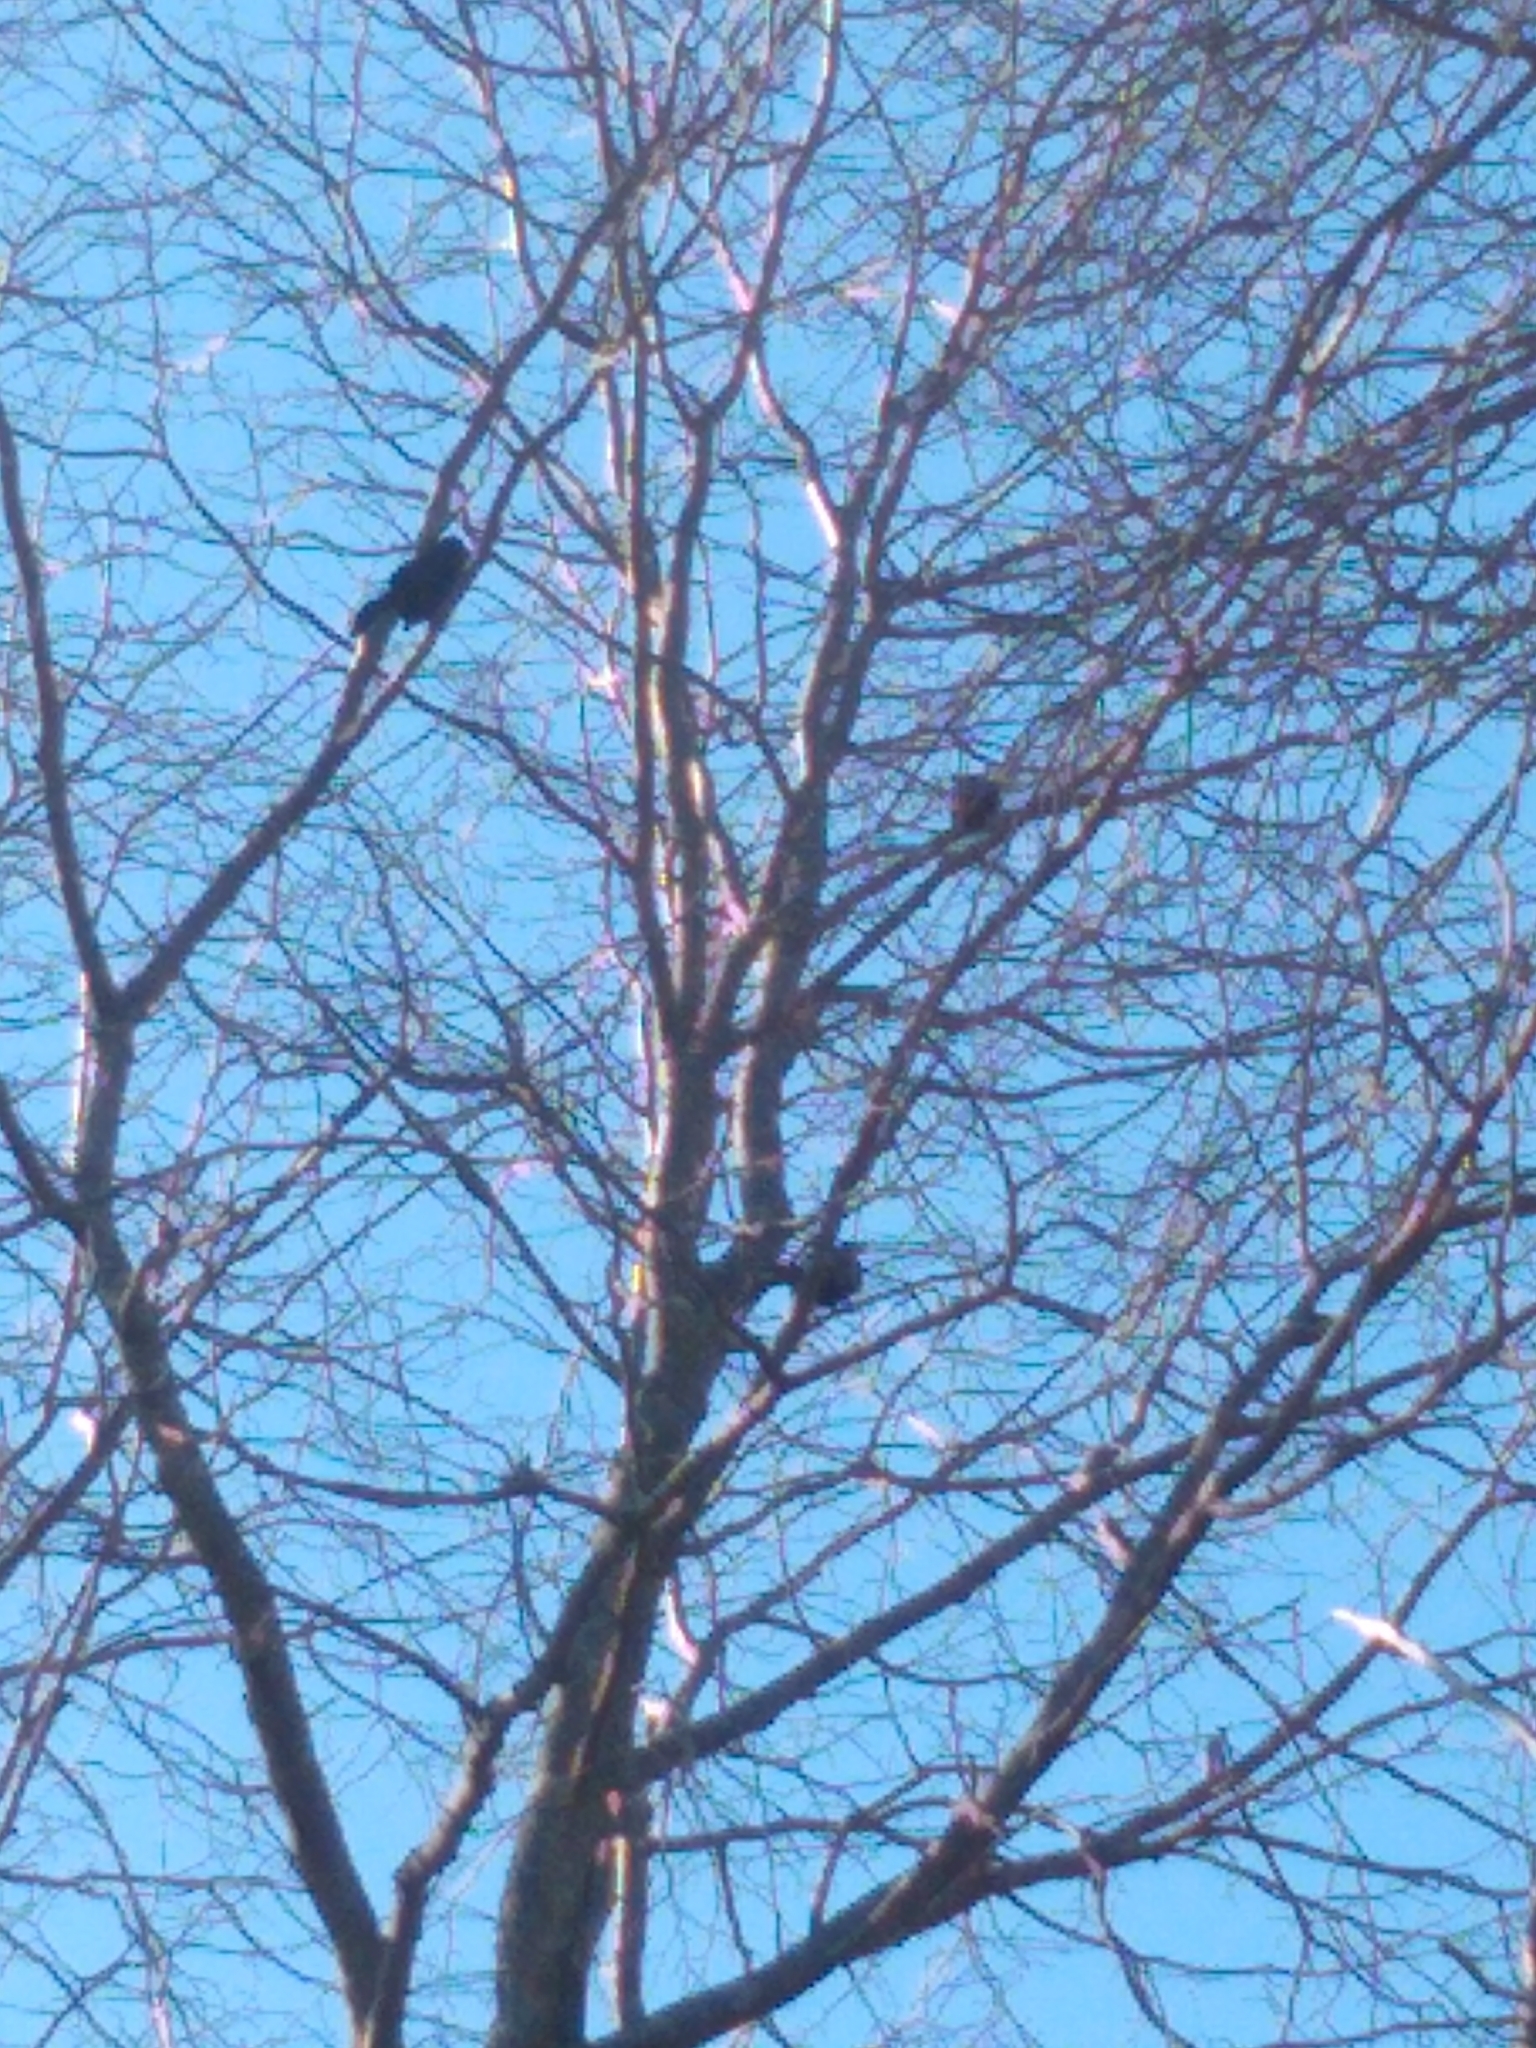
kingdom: Animalia
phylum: Chordata
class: Aves
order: Passeriformes
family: Icteridae
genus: Quiscalus
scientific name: Quiscalus quiscula
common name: Common grackle
